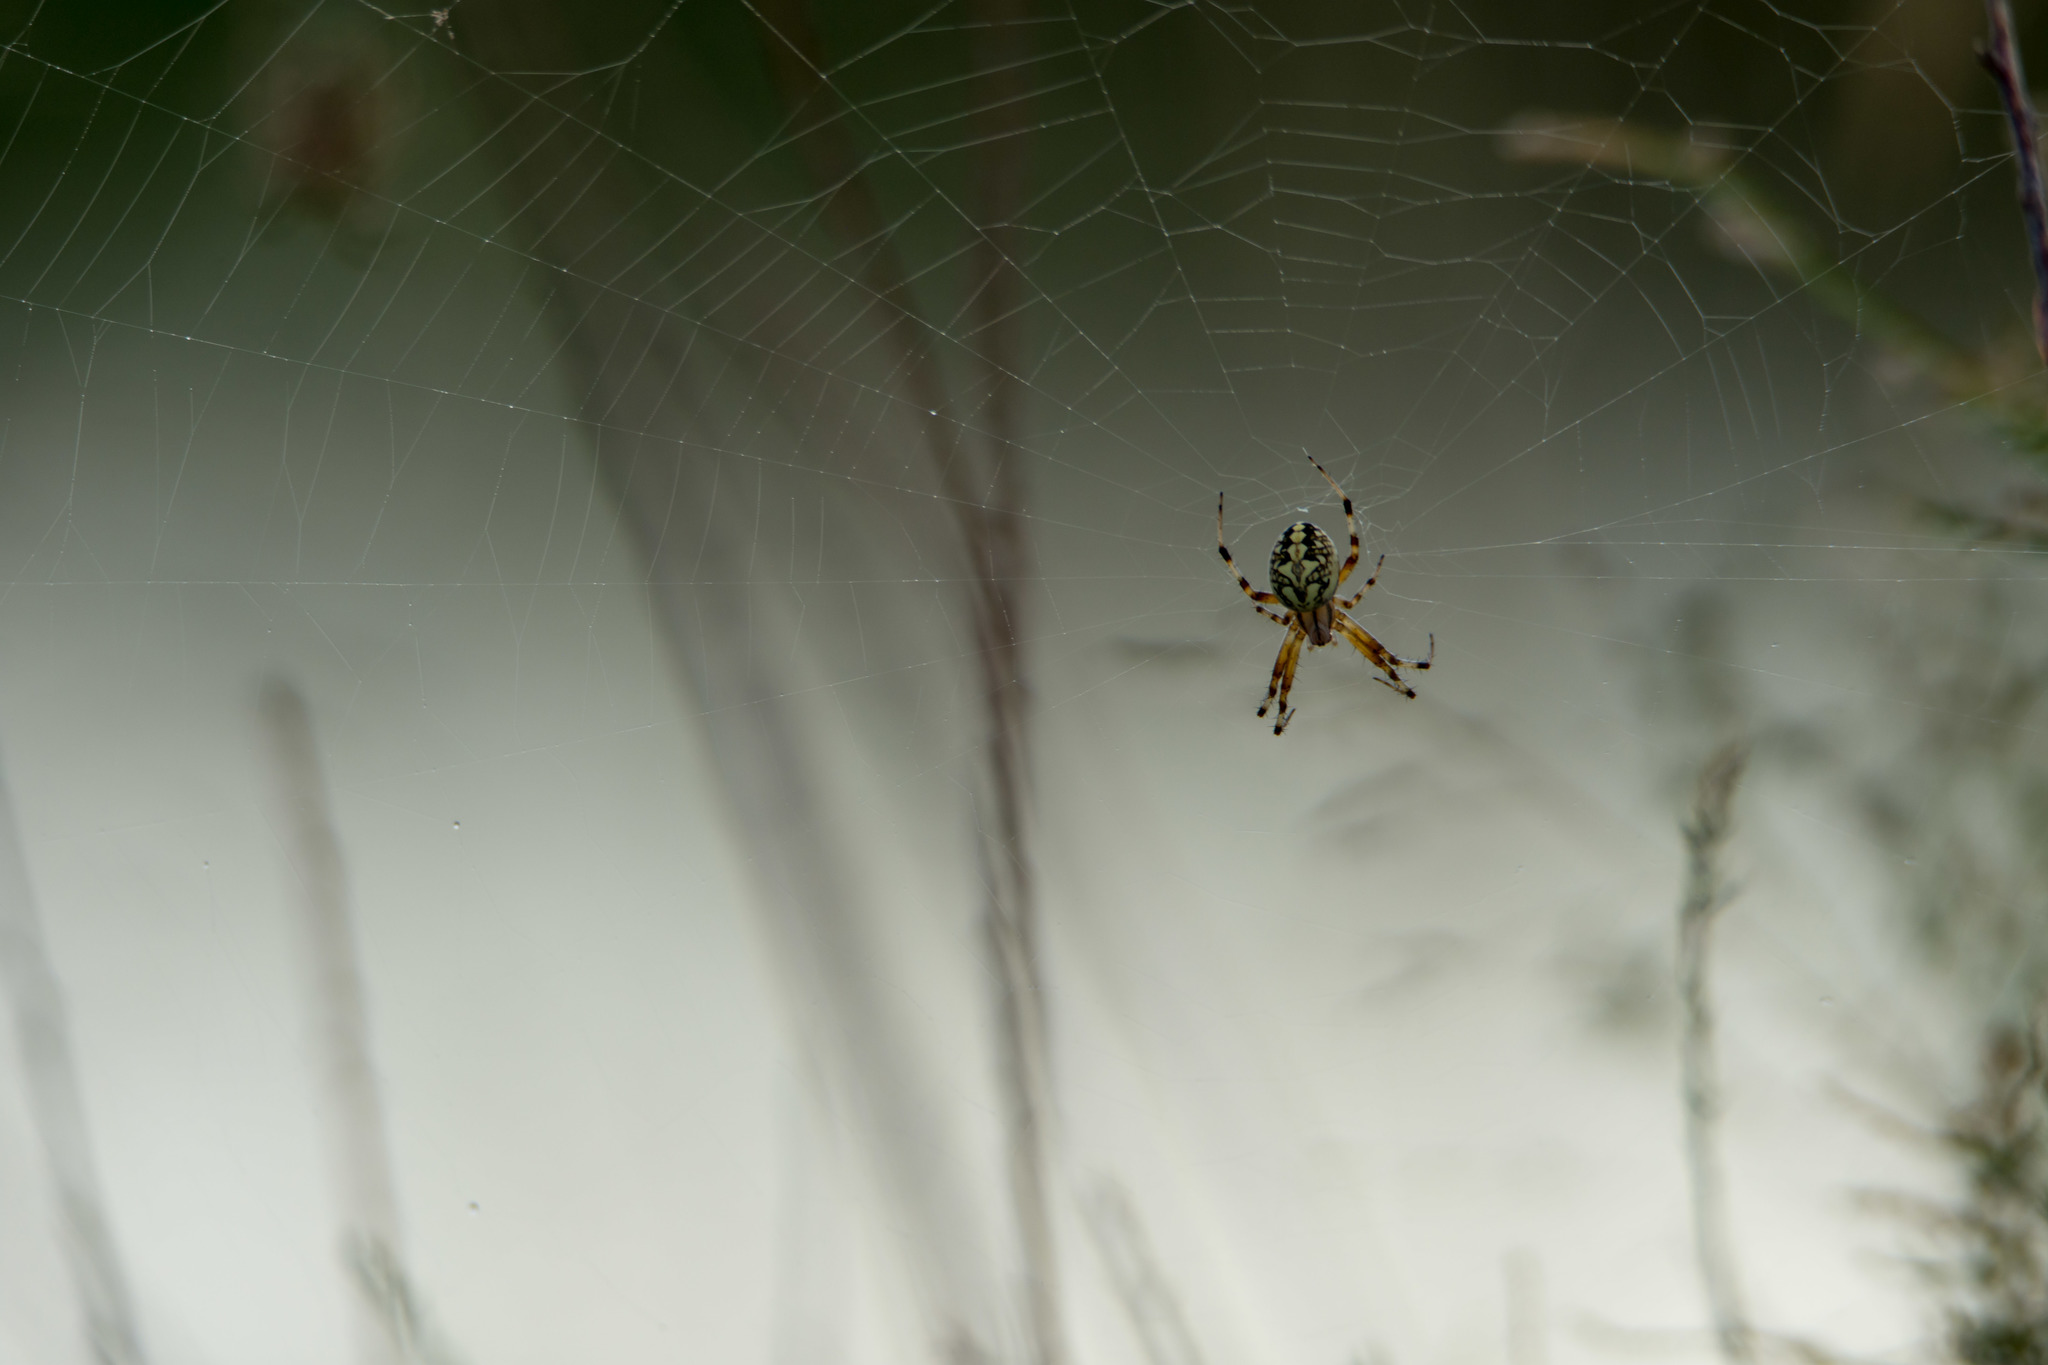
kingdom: Animalia
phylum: Arthropoda
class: Arachnida
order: Araneae
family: Araneidae
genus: Neoscona
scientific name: Neoscona oaxacensis
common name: Orb weavers
